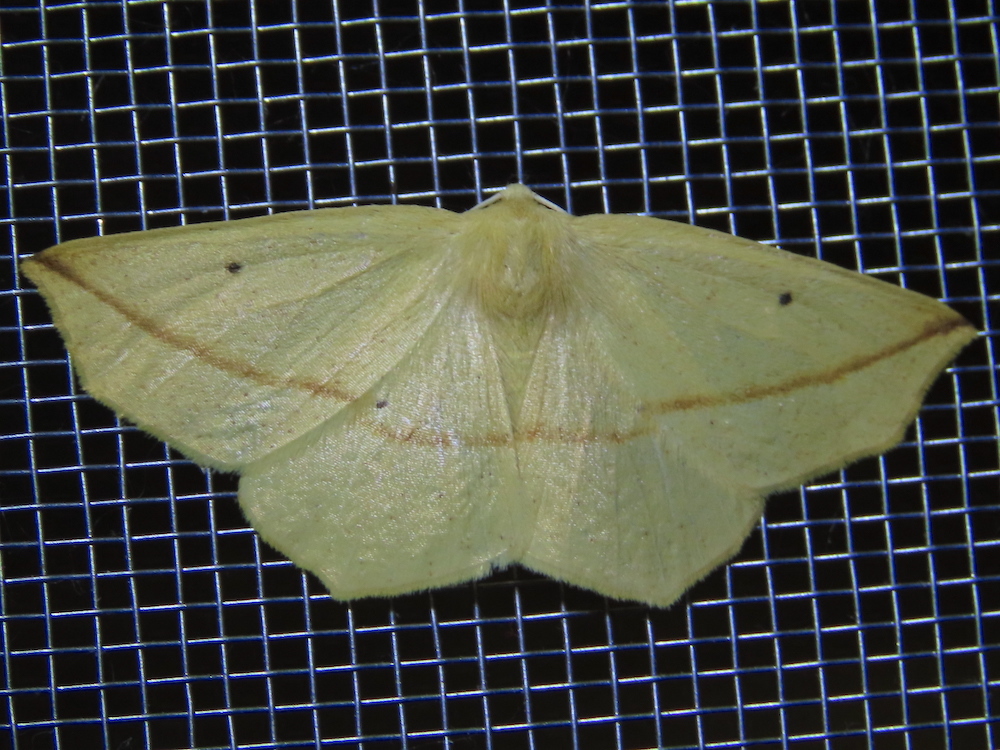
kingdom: Animalia
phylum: Arthropoda
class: Insecta
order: Lepidoptera
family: Geometridae
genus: Tetracis
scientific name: Tetracis crocallata
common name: Yellow slant-line
